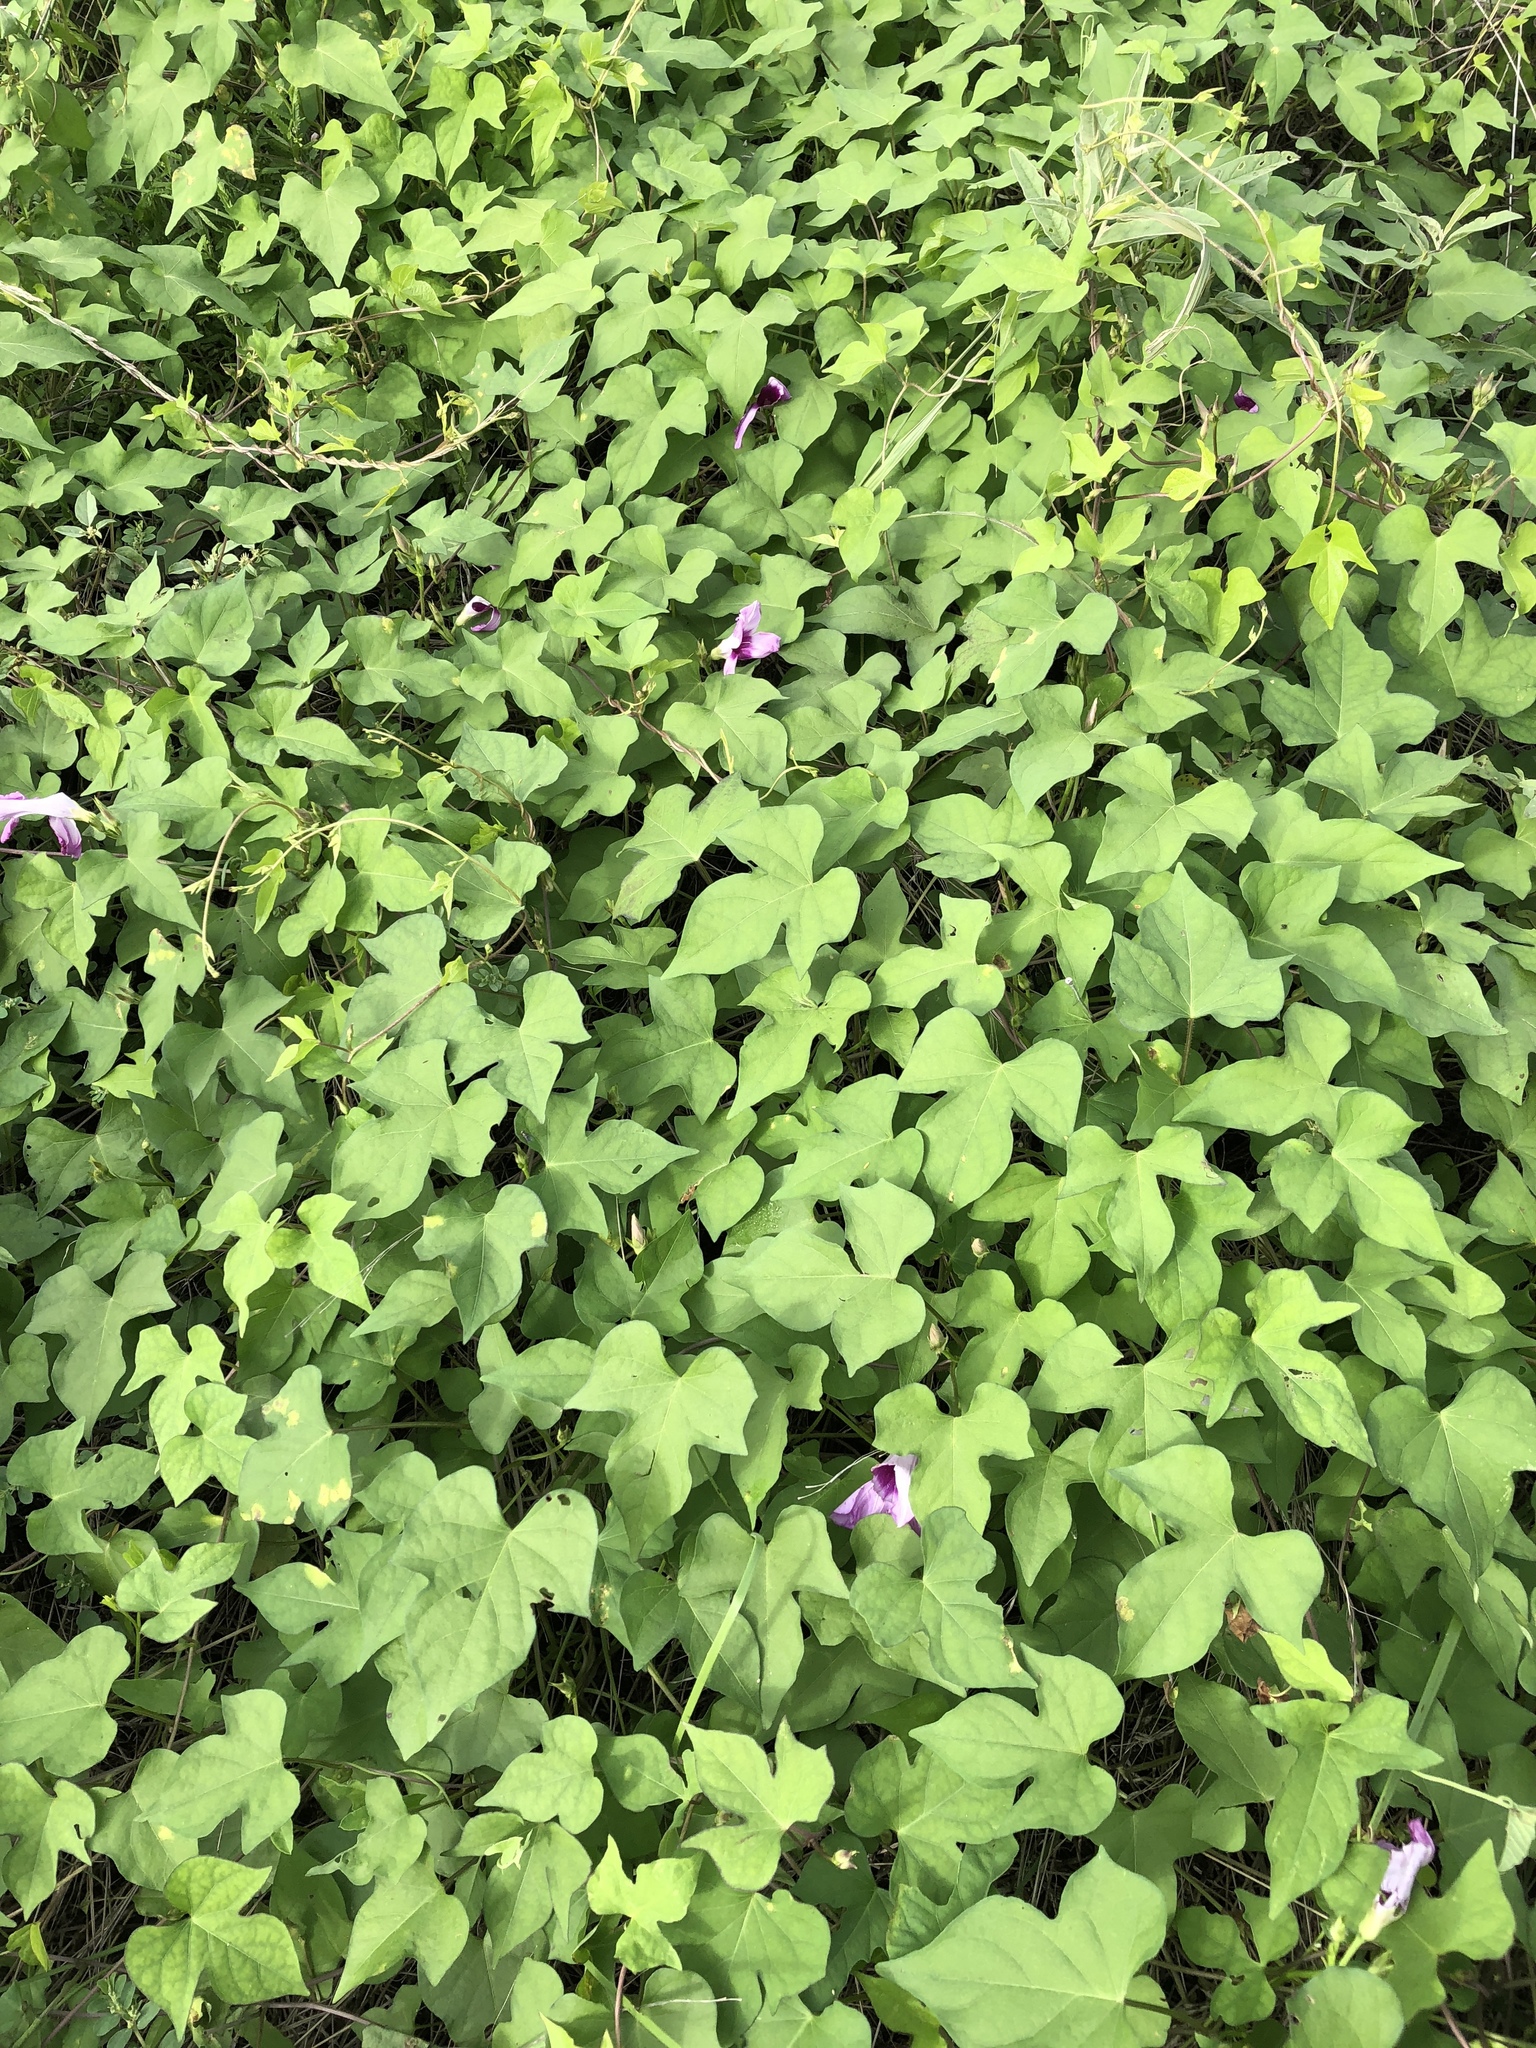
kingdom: Plantae
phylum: Tracheophyta
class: Magnoliopsida
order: Solanales
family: Convolvulaceae
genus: Ipomoea
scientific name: Ipomoea cordatotriloba
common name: Cotton morning glory
